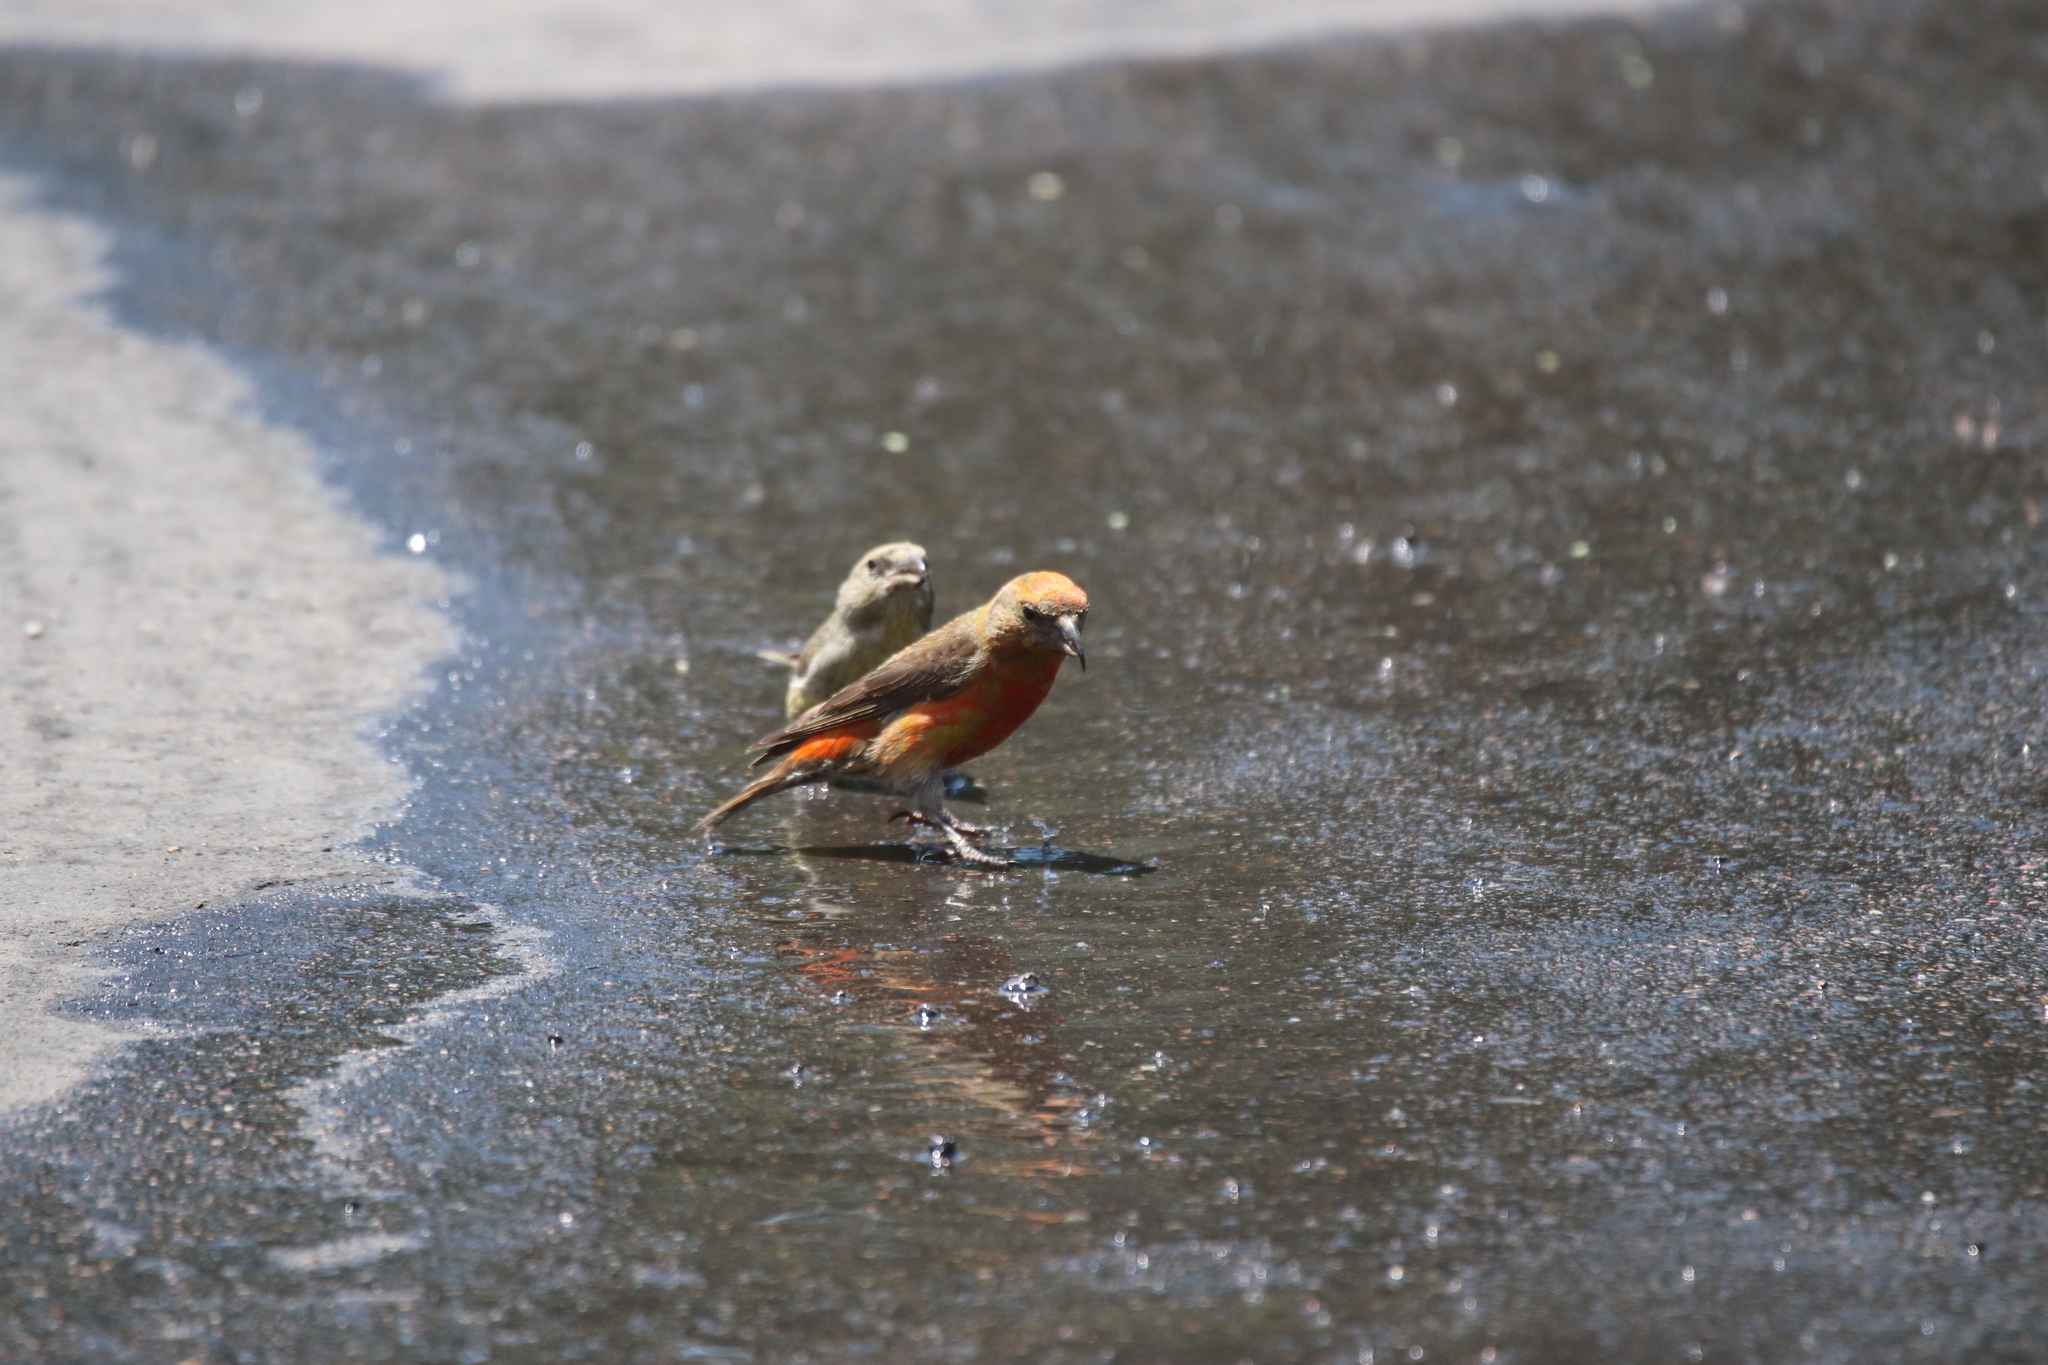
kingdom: Animalia
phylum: Chordata
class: Aves
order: Passeriformes
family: Fringillidae
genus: Loxia
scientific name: Loxia curvirostra
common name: Red crossbill
